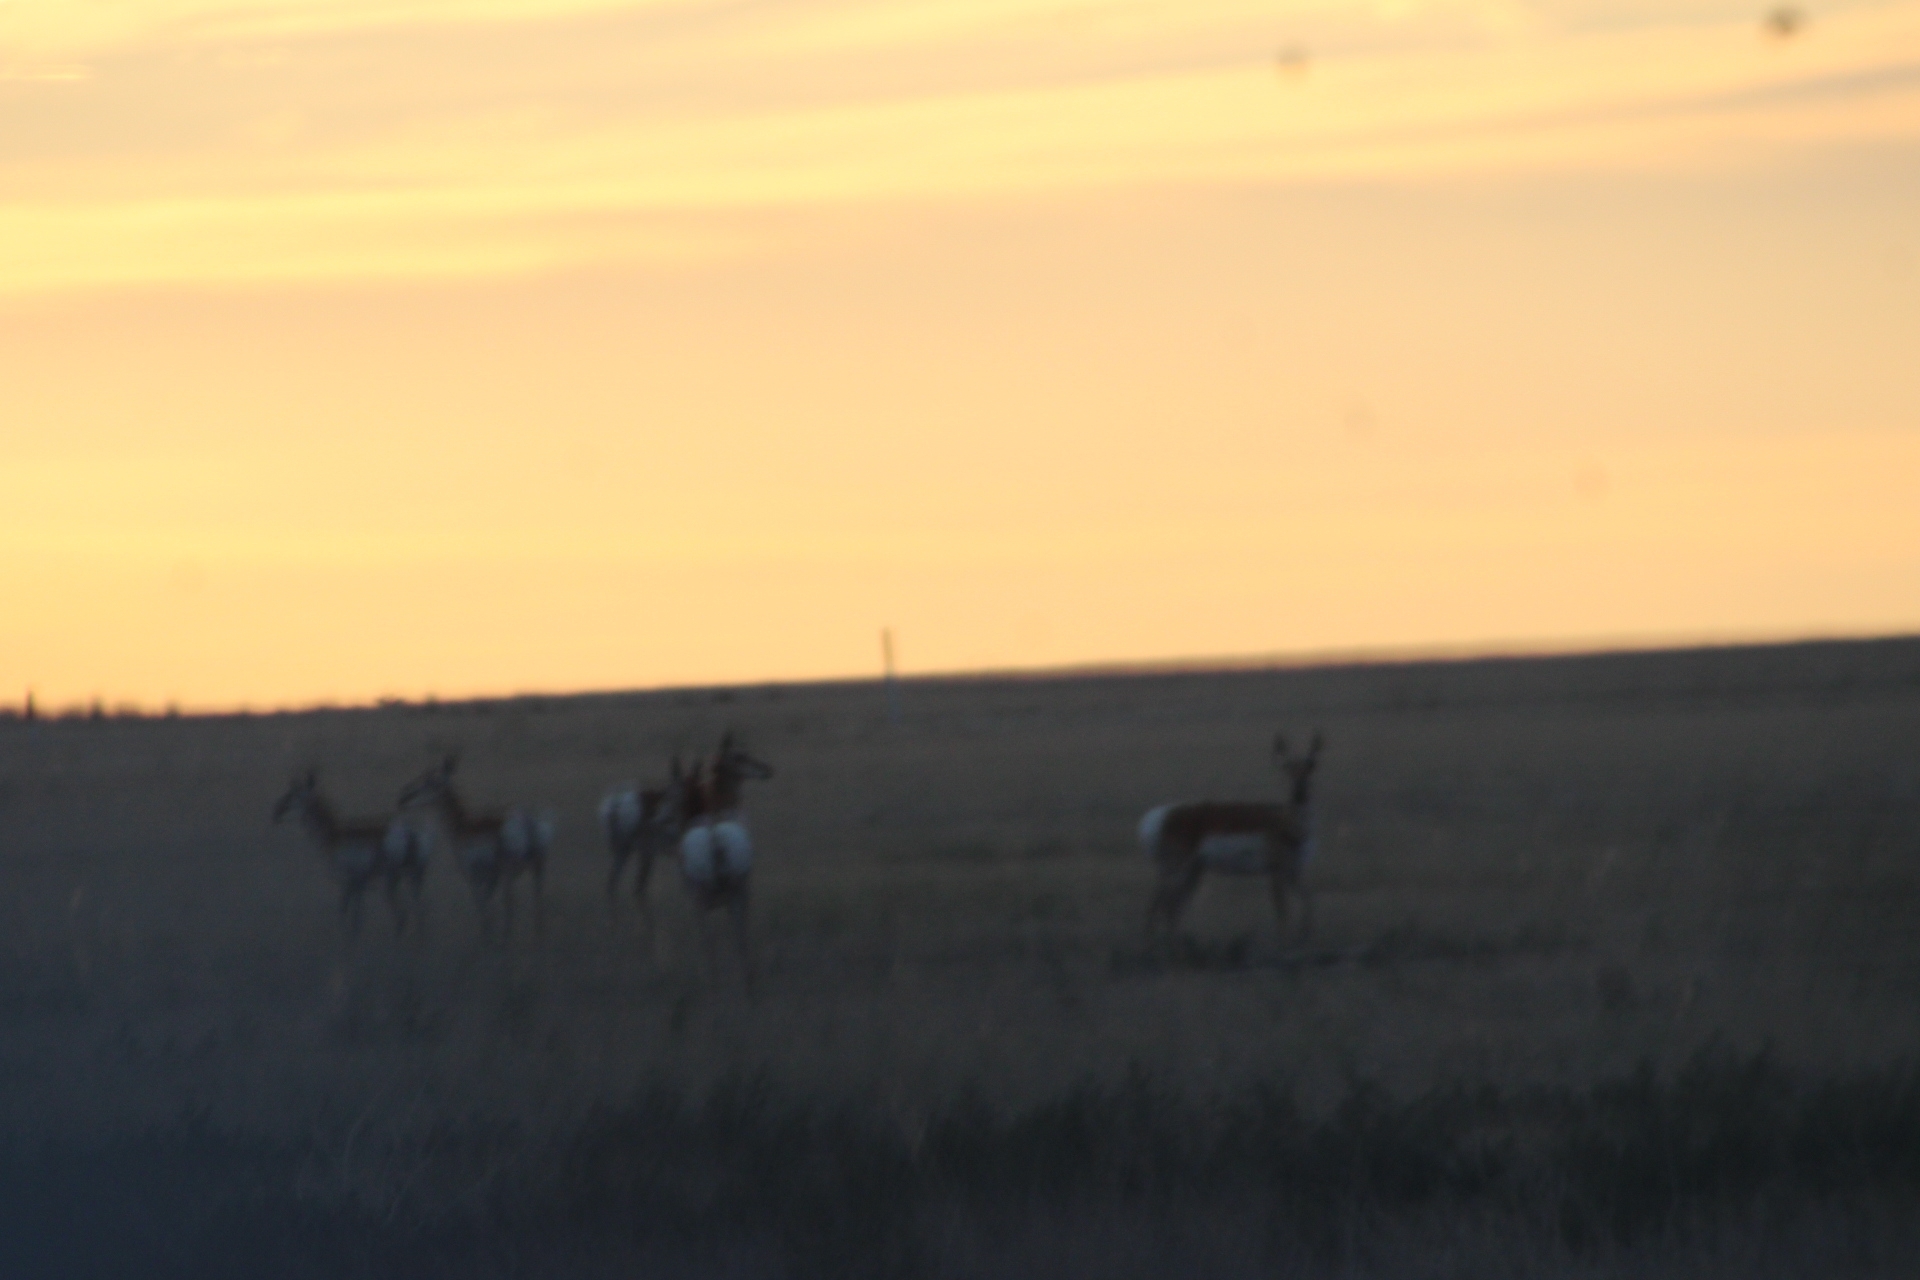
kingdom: Animalia
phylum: Chordata
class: Mammalia
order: Artiodactyla
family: Antilocapridae
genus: Antilocapra
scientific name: Antilocapra americana
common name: Pronghorn
